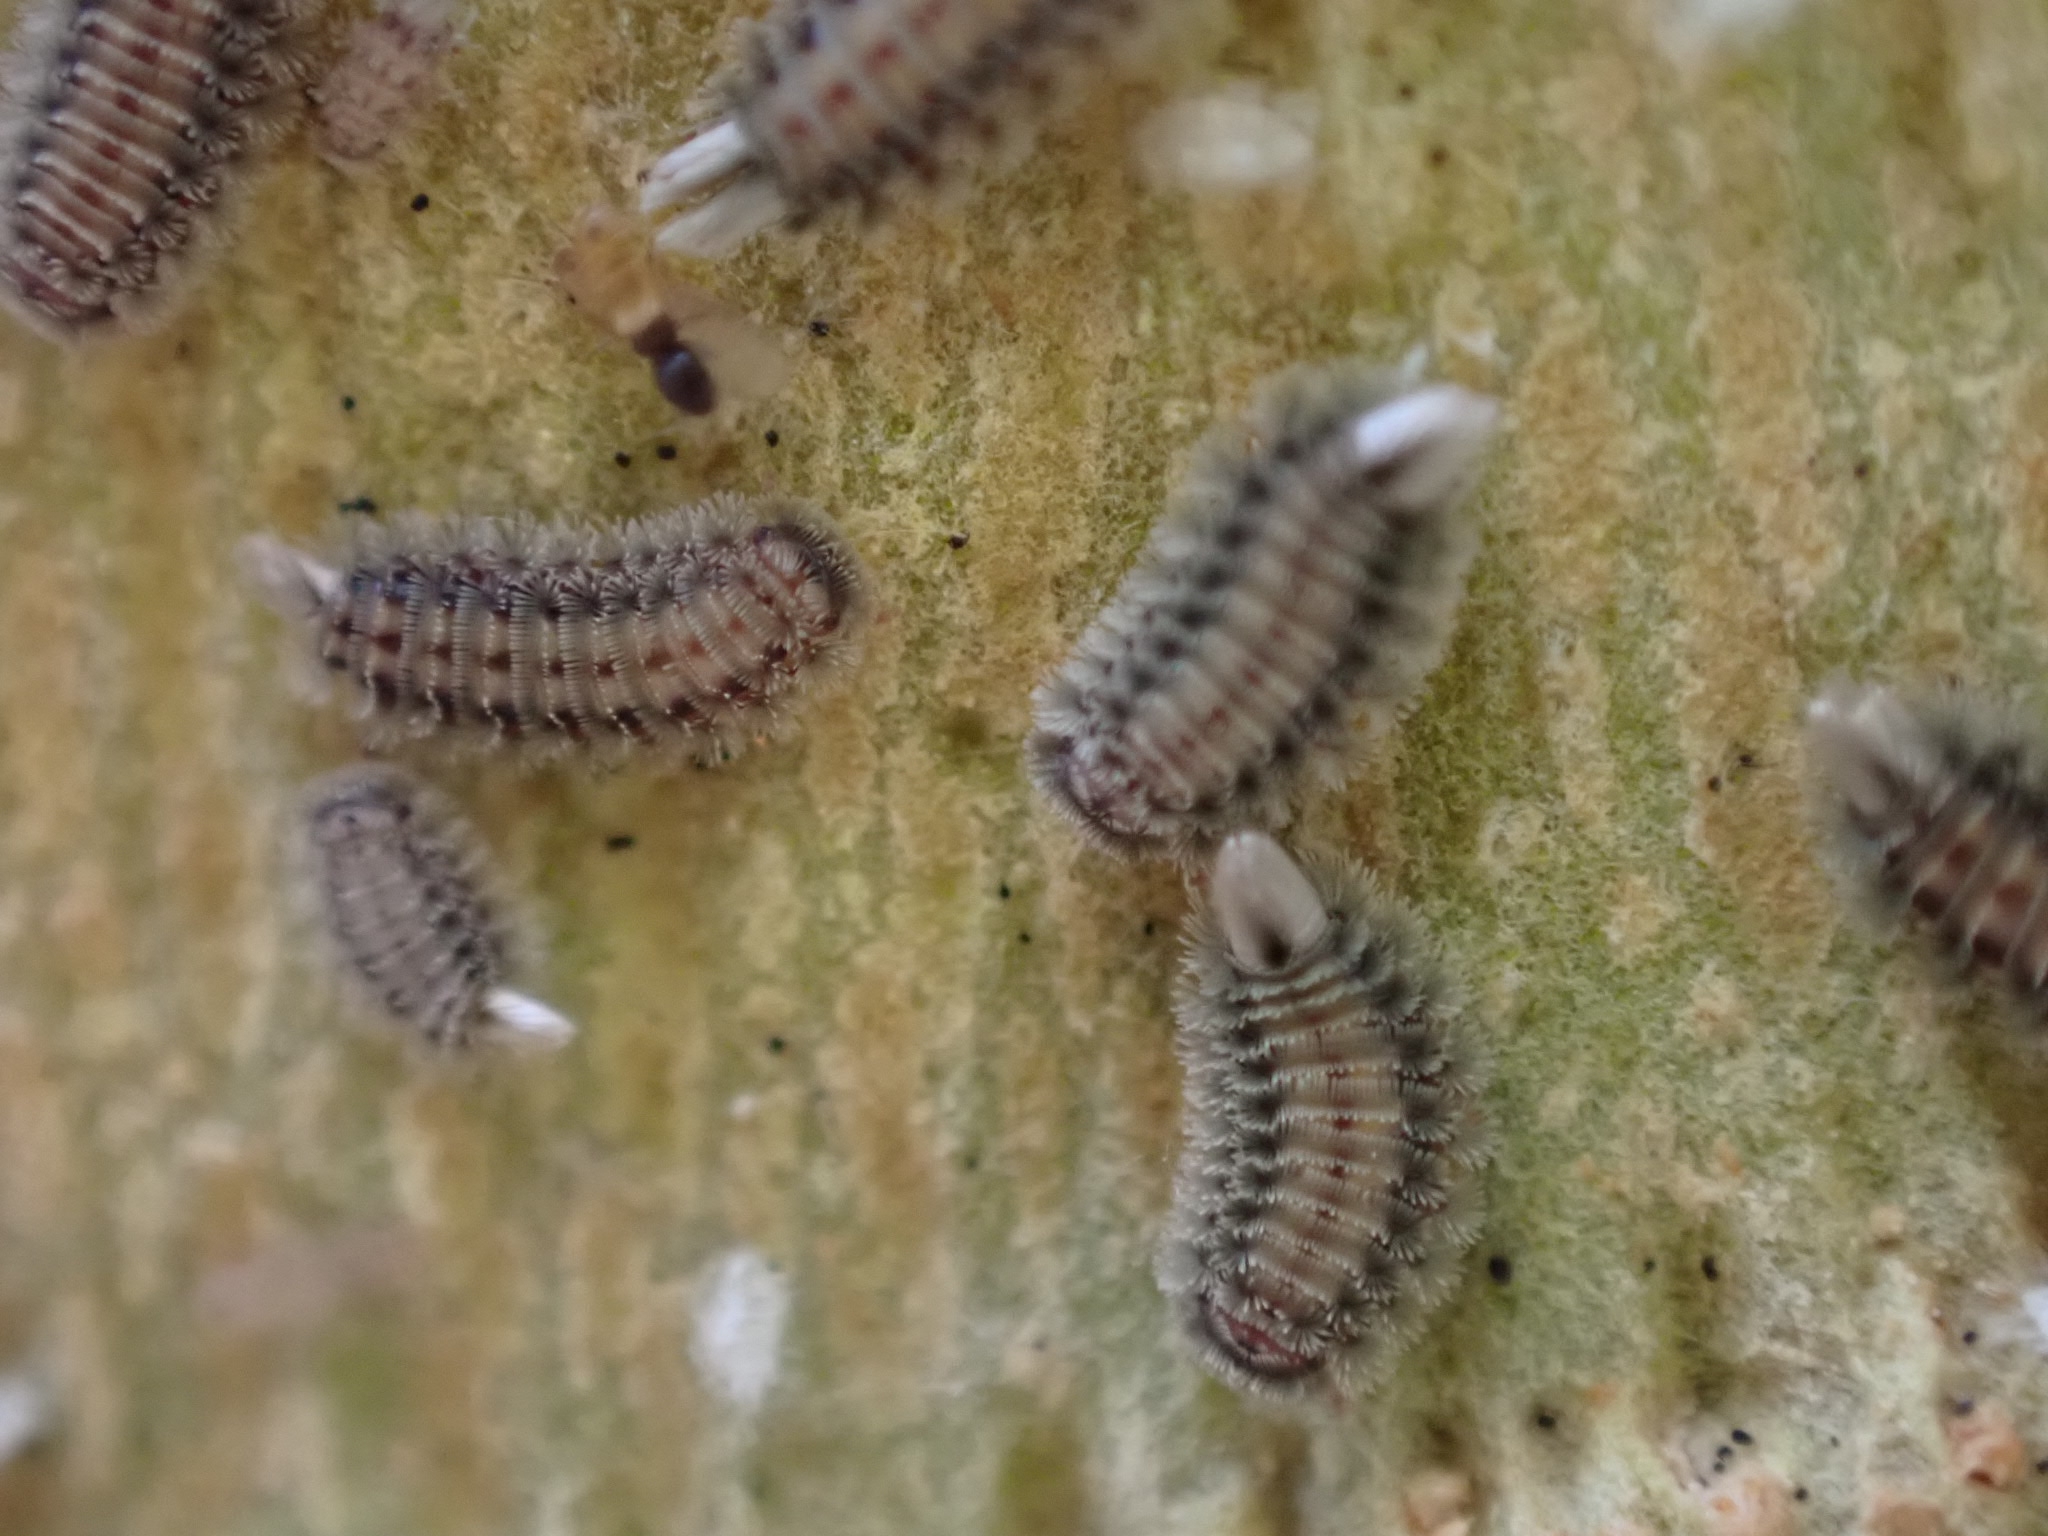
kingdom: Animalia
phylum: Arthropoda
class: Diplopoda
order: Polyxenida
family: Polyxenidae
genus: Polyxenus
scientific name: Polyxenus lagurus
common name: Bristly millipede
